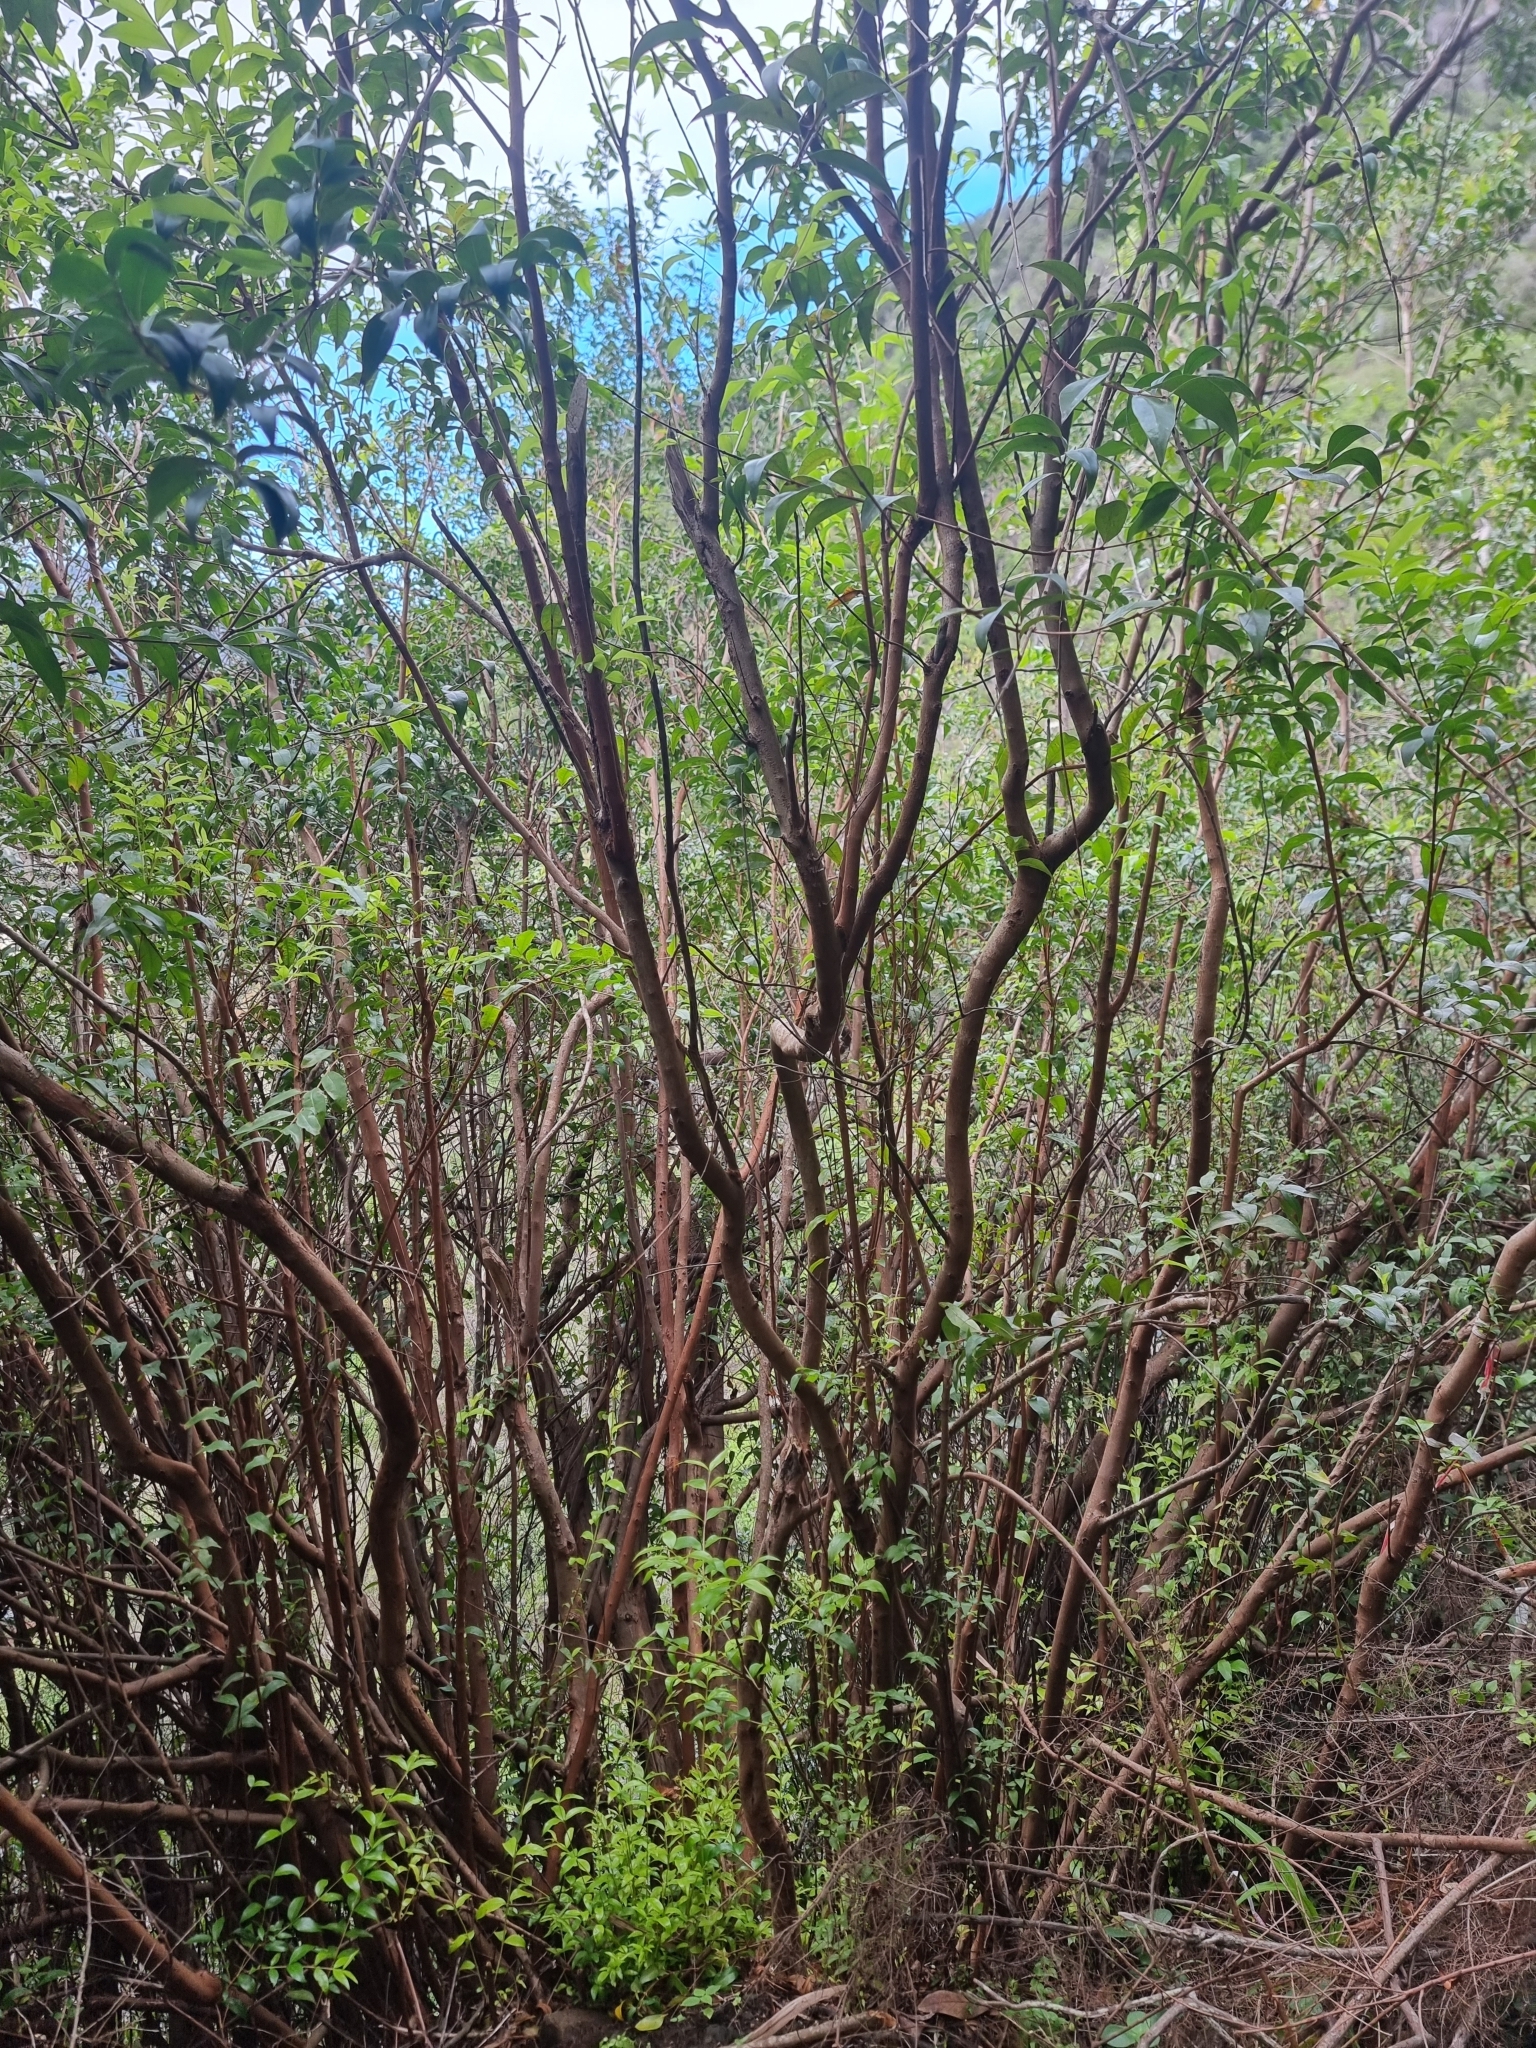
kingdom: Plantae
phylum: Tracheophyta
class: Magnoliopsida
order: Myrtales
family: Myrtaceae
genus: Myrtus
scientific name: Myrtus communis
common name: Myrtle
